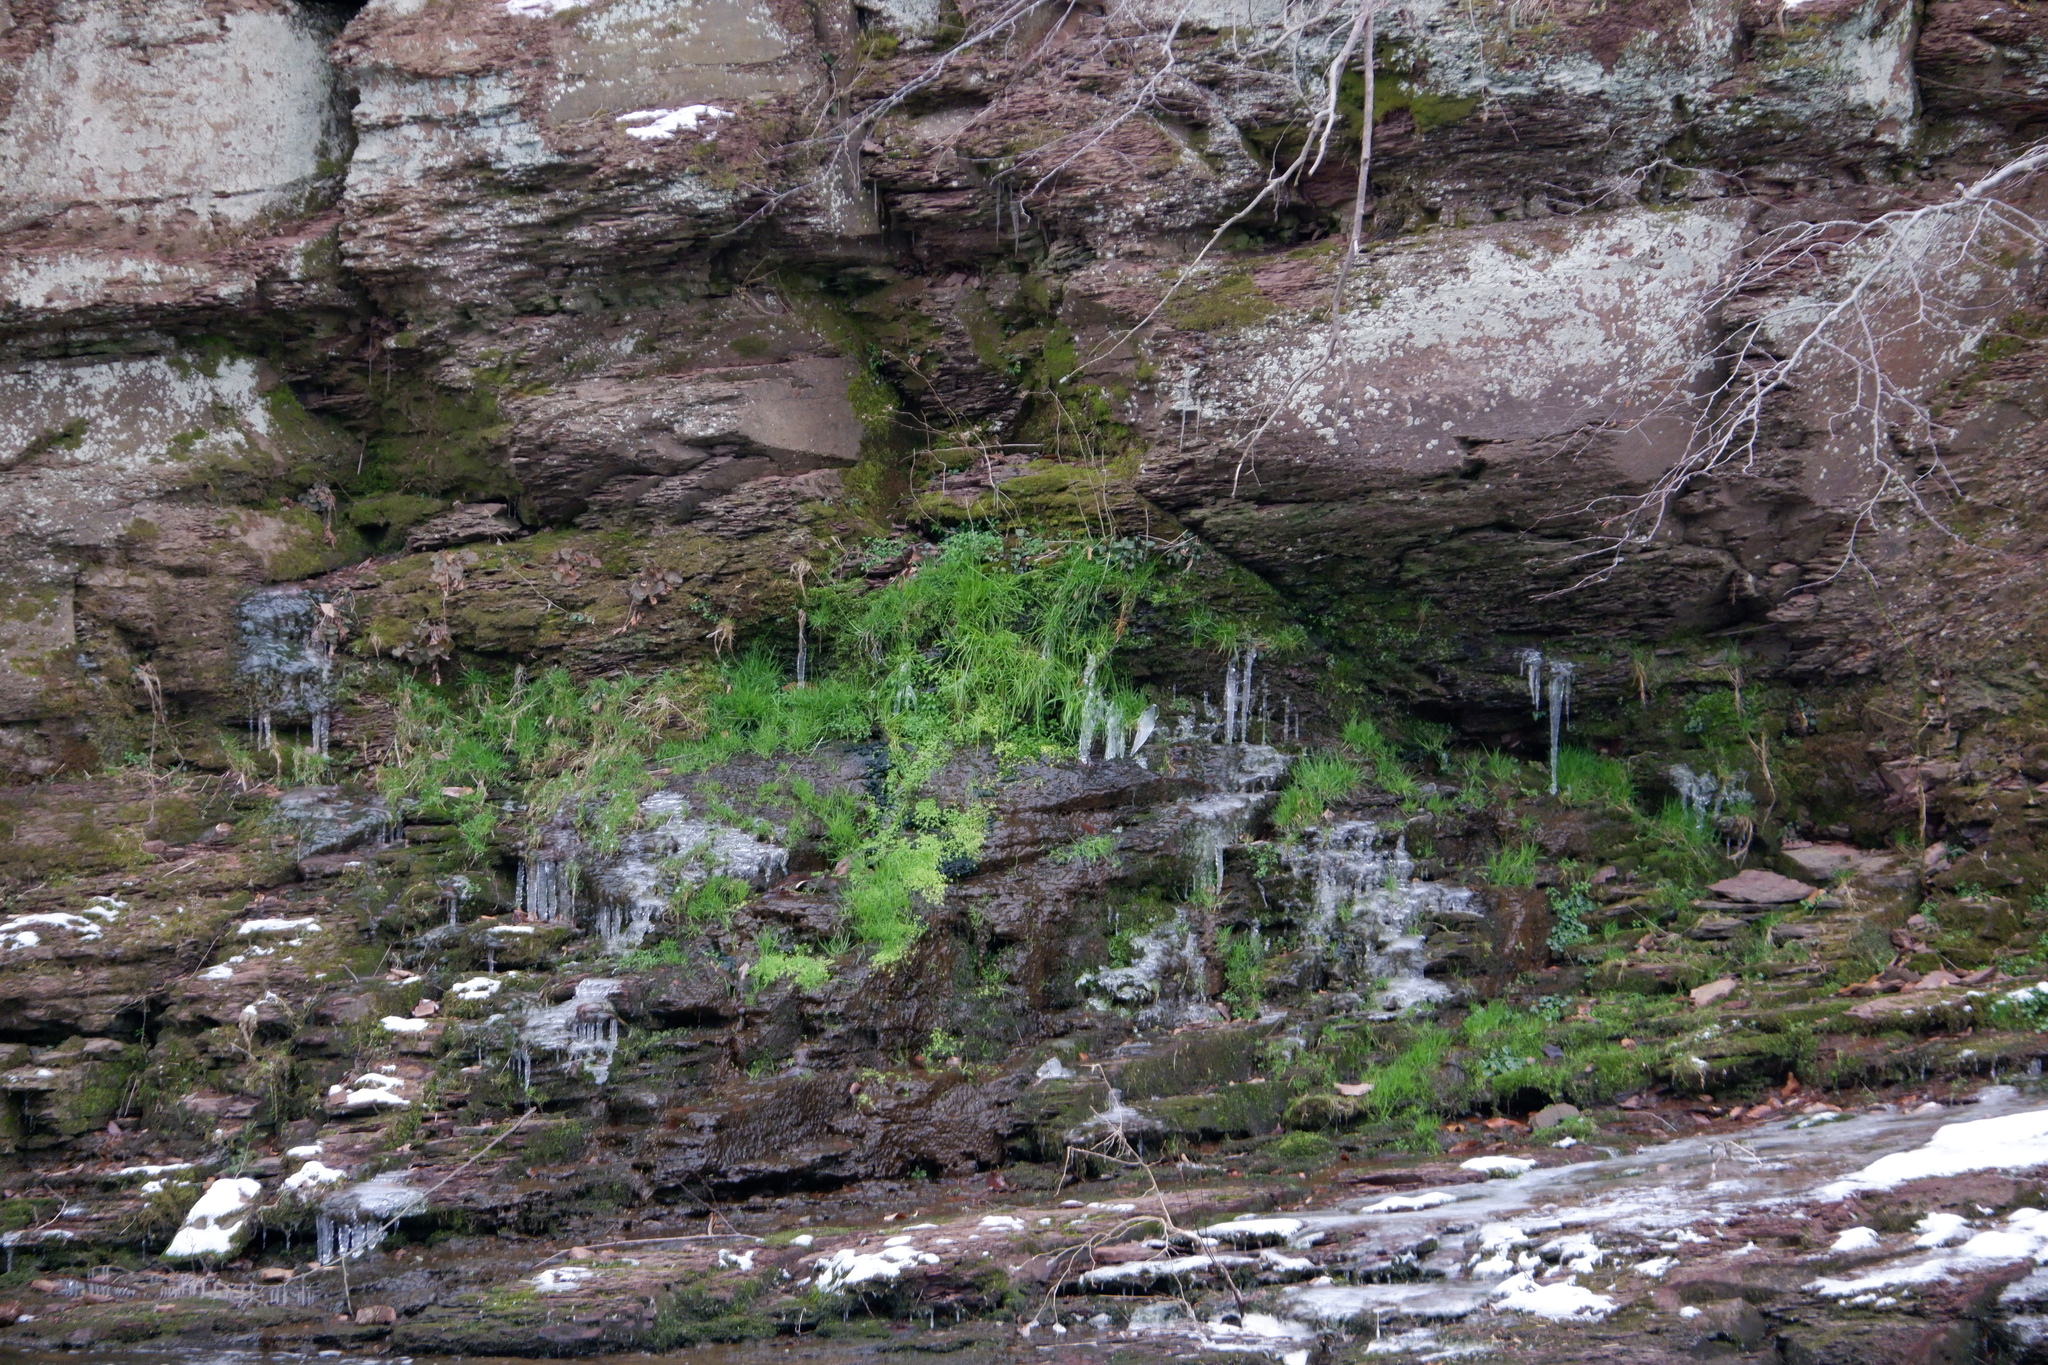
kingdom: Plantae
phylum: Tracheophyta
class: Magnoliopsida
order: Saxifragales
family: Saxifragaceae
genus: Heuchera
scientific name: Heuchera americana
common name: Alumroot
